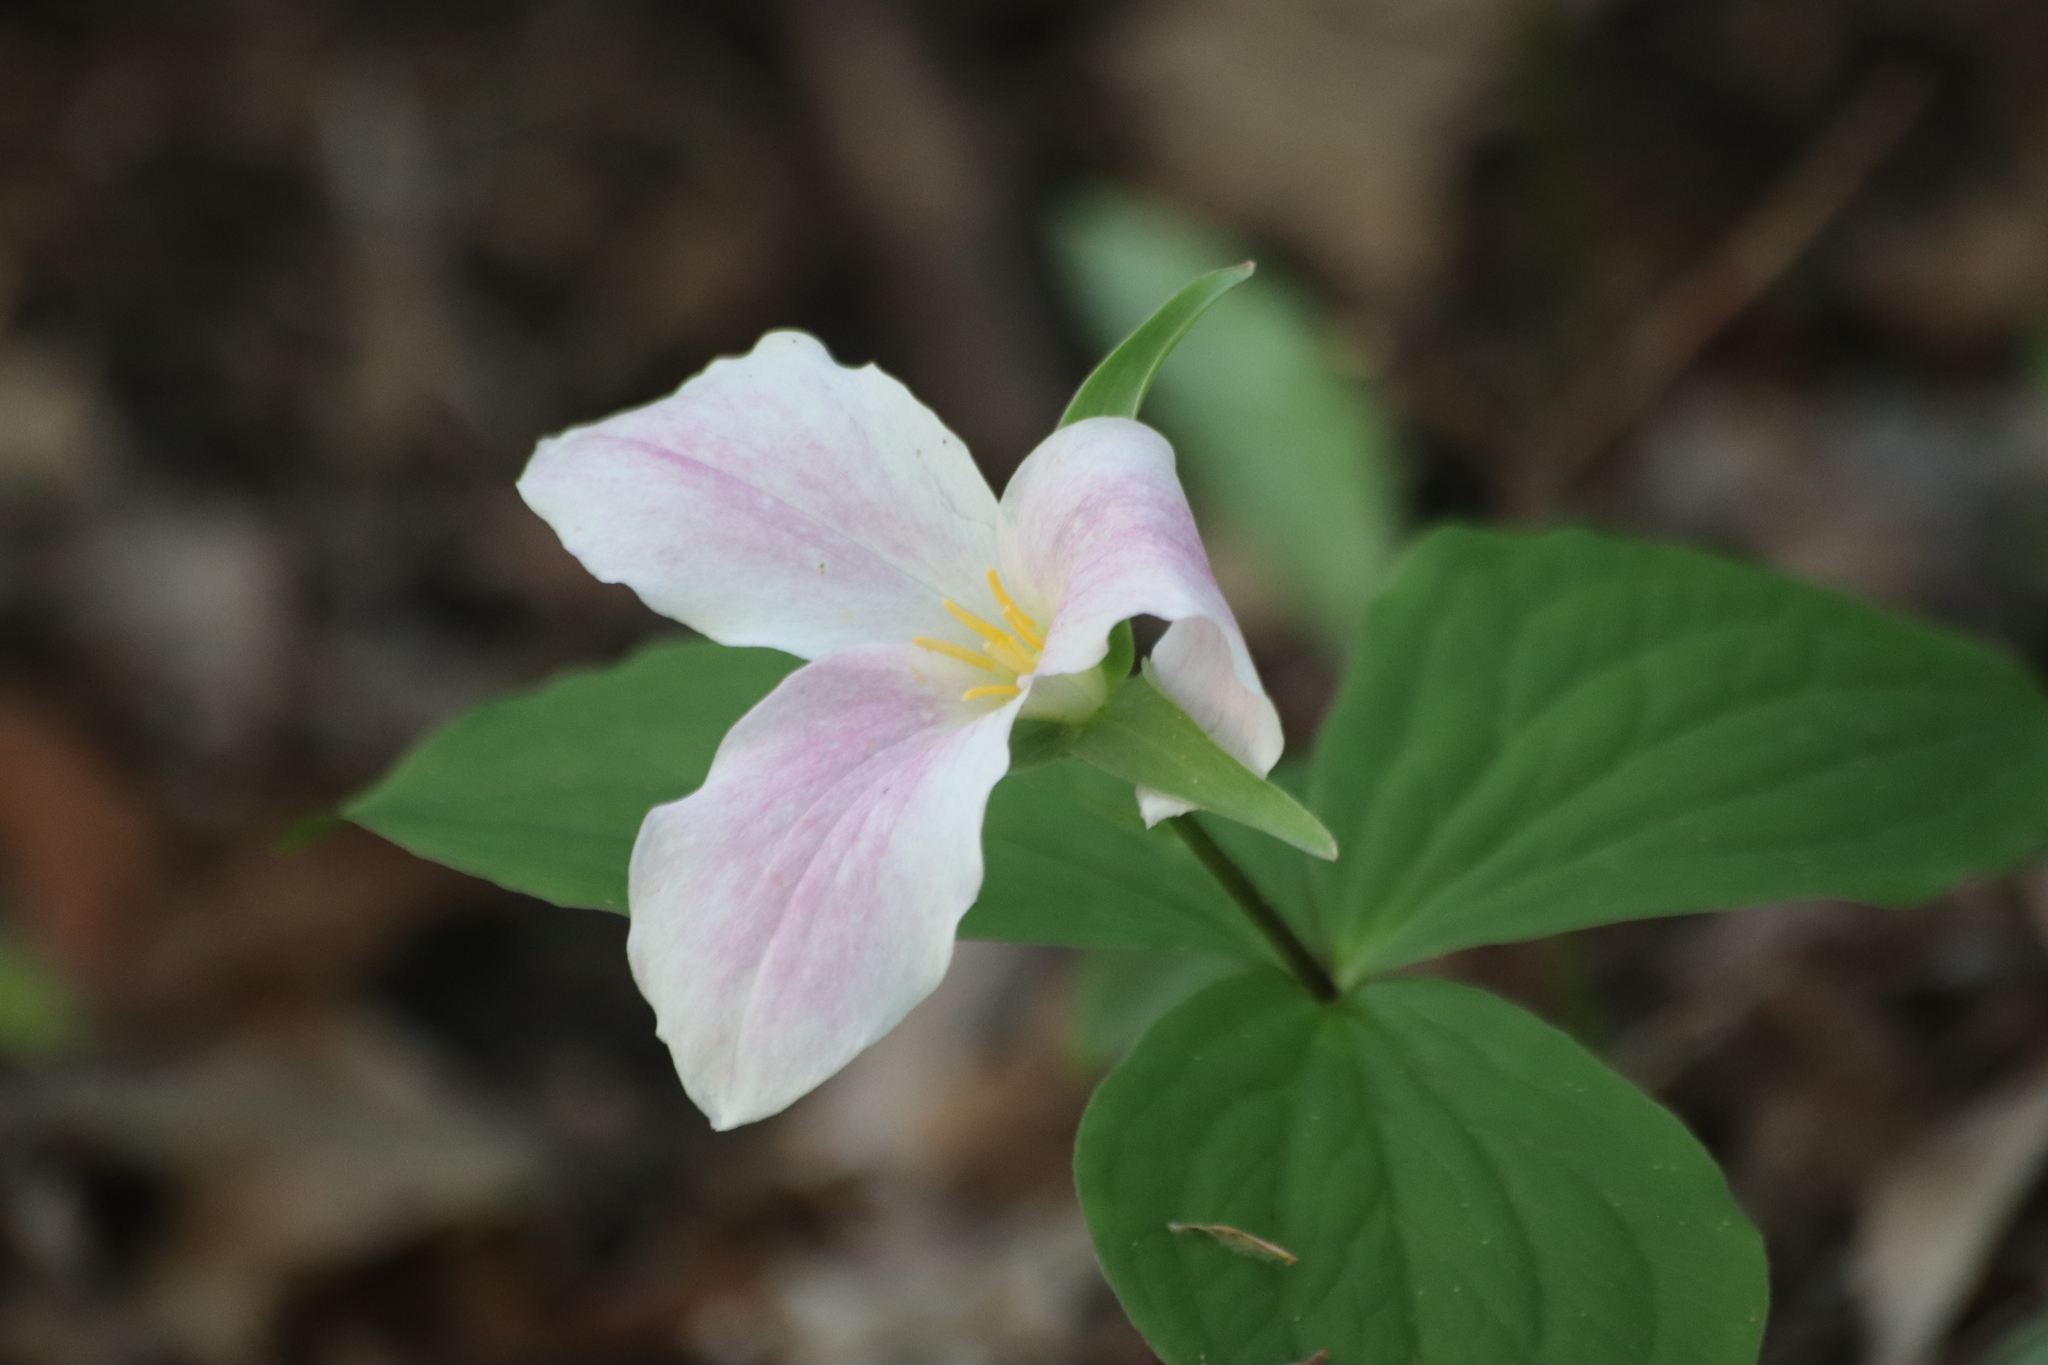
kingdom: Plantae
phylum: Tracheophyta
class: Liliopsida
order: Liliales
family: Melanthiaceae
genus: Trillium
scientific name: Trillium grandiflorum
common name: Great white trillium
